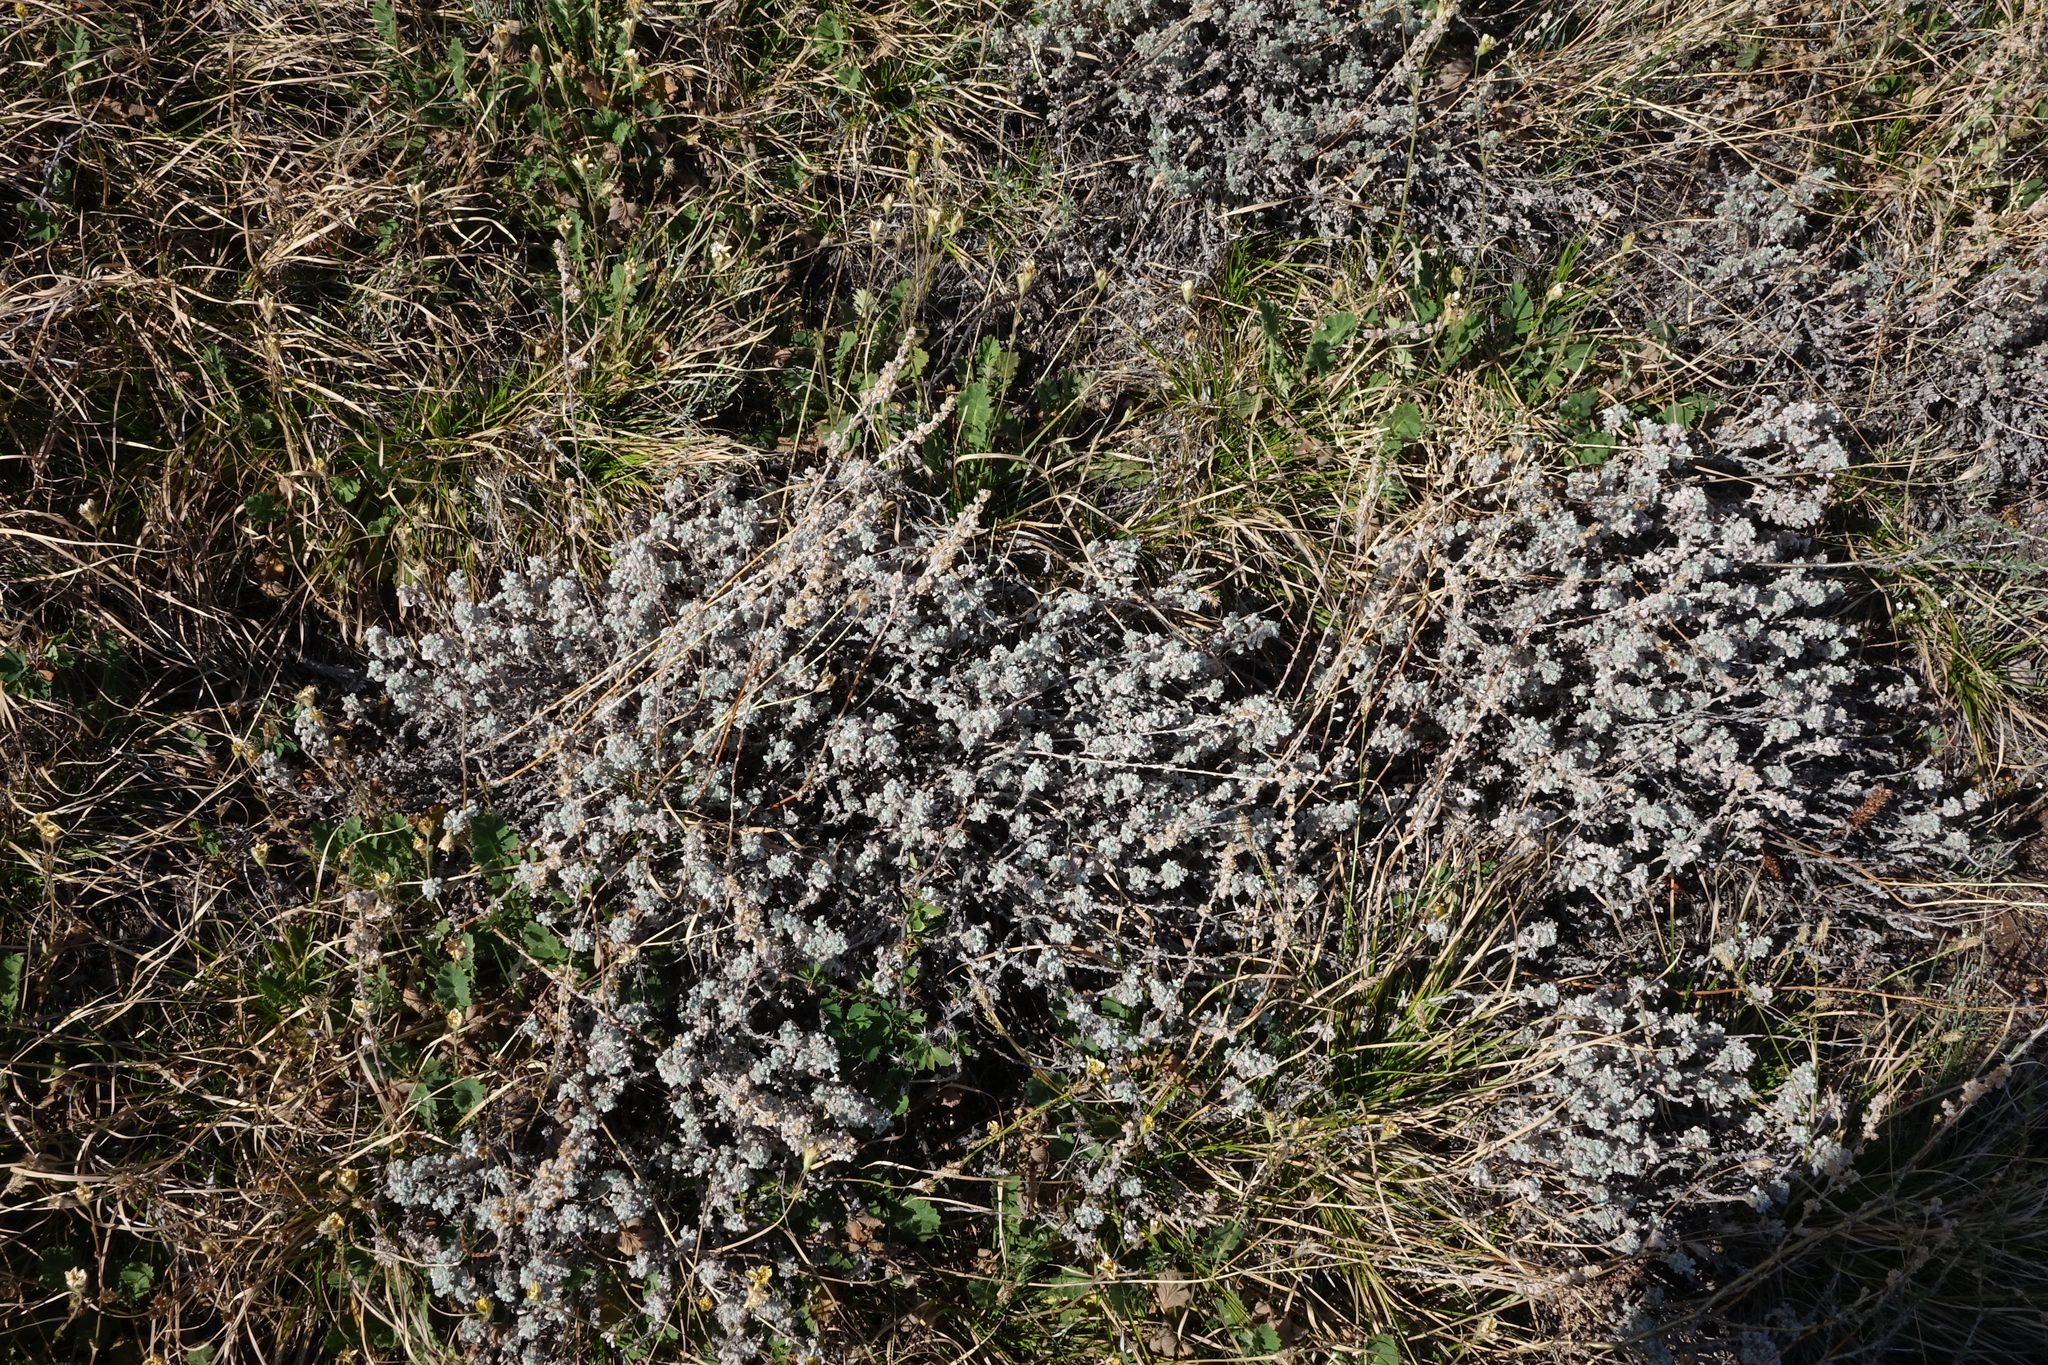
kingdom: Plantae
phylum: Tracheophyta
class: Magnoliopsida
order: Asterales
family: Asteraceae
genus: Artemisia
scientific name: Artemisia frigida
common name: Prairie sagewort
